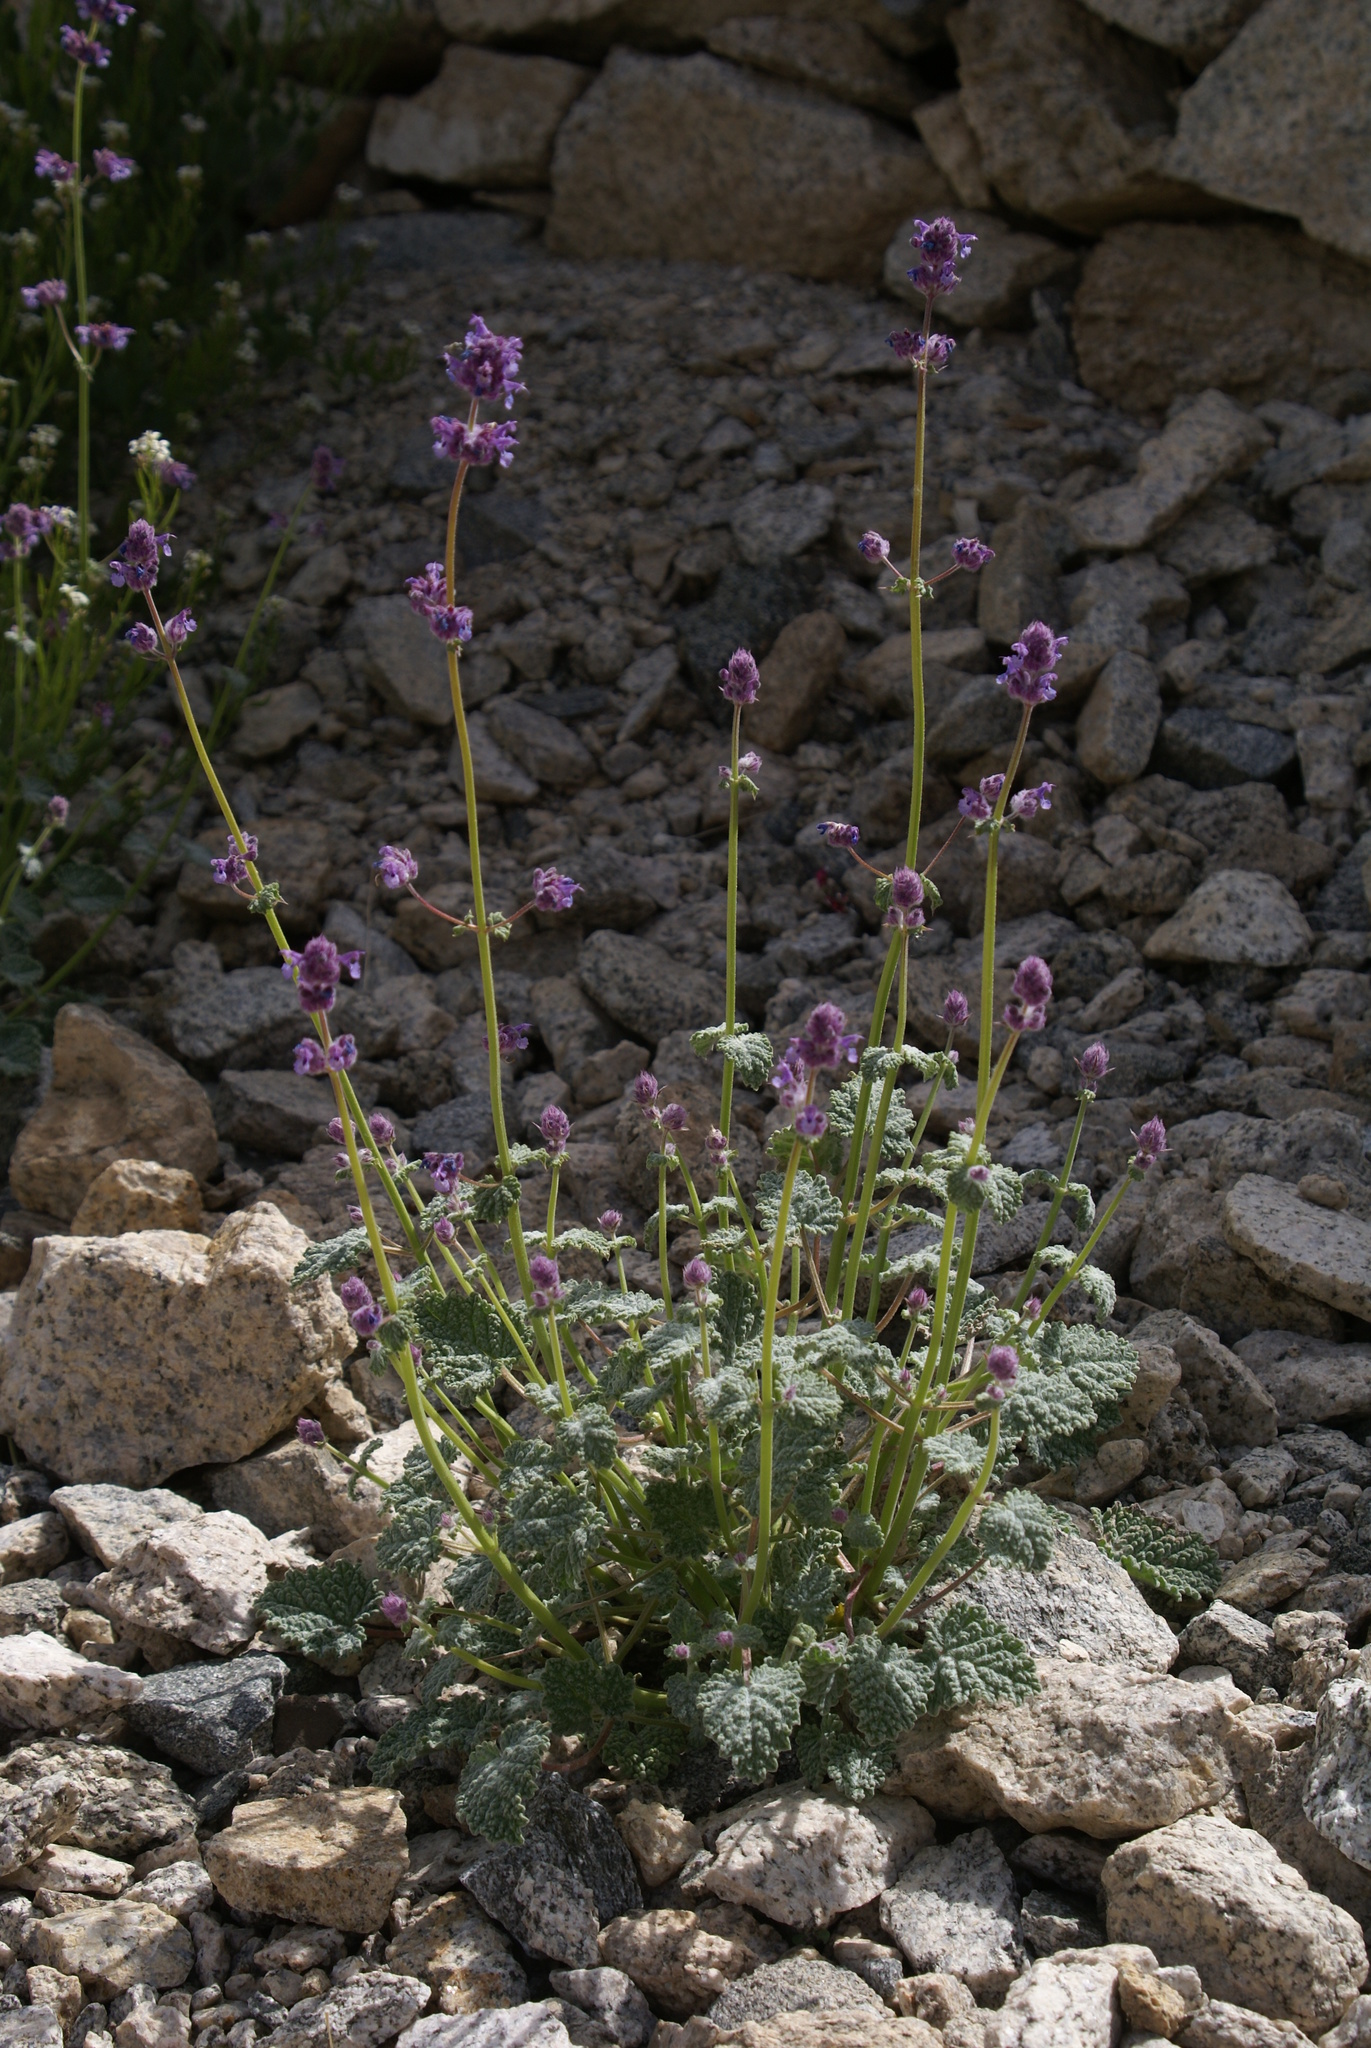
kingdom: Plantae
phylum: Tracheophyta
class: Magnoliopsida
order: Lamiales
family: Lamiaceae
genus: Nepeta
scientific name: Nepeta floccosa
